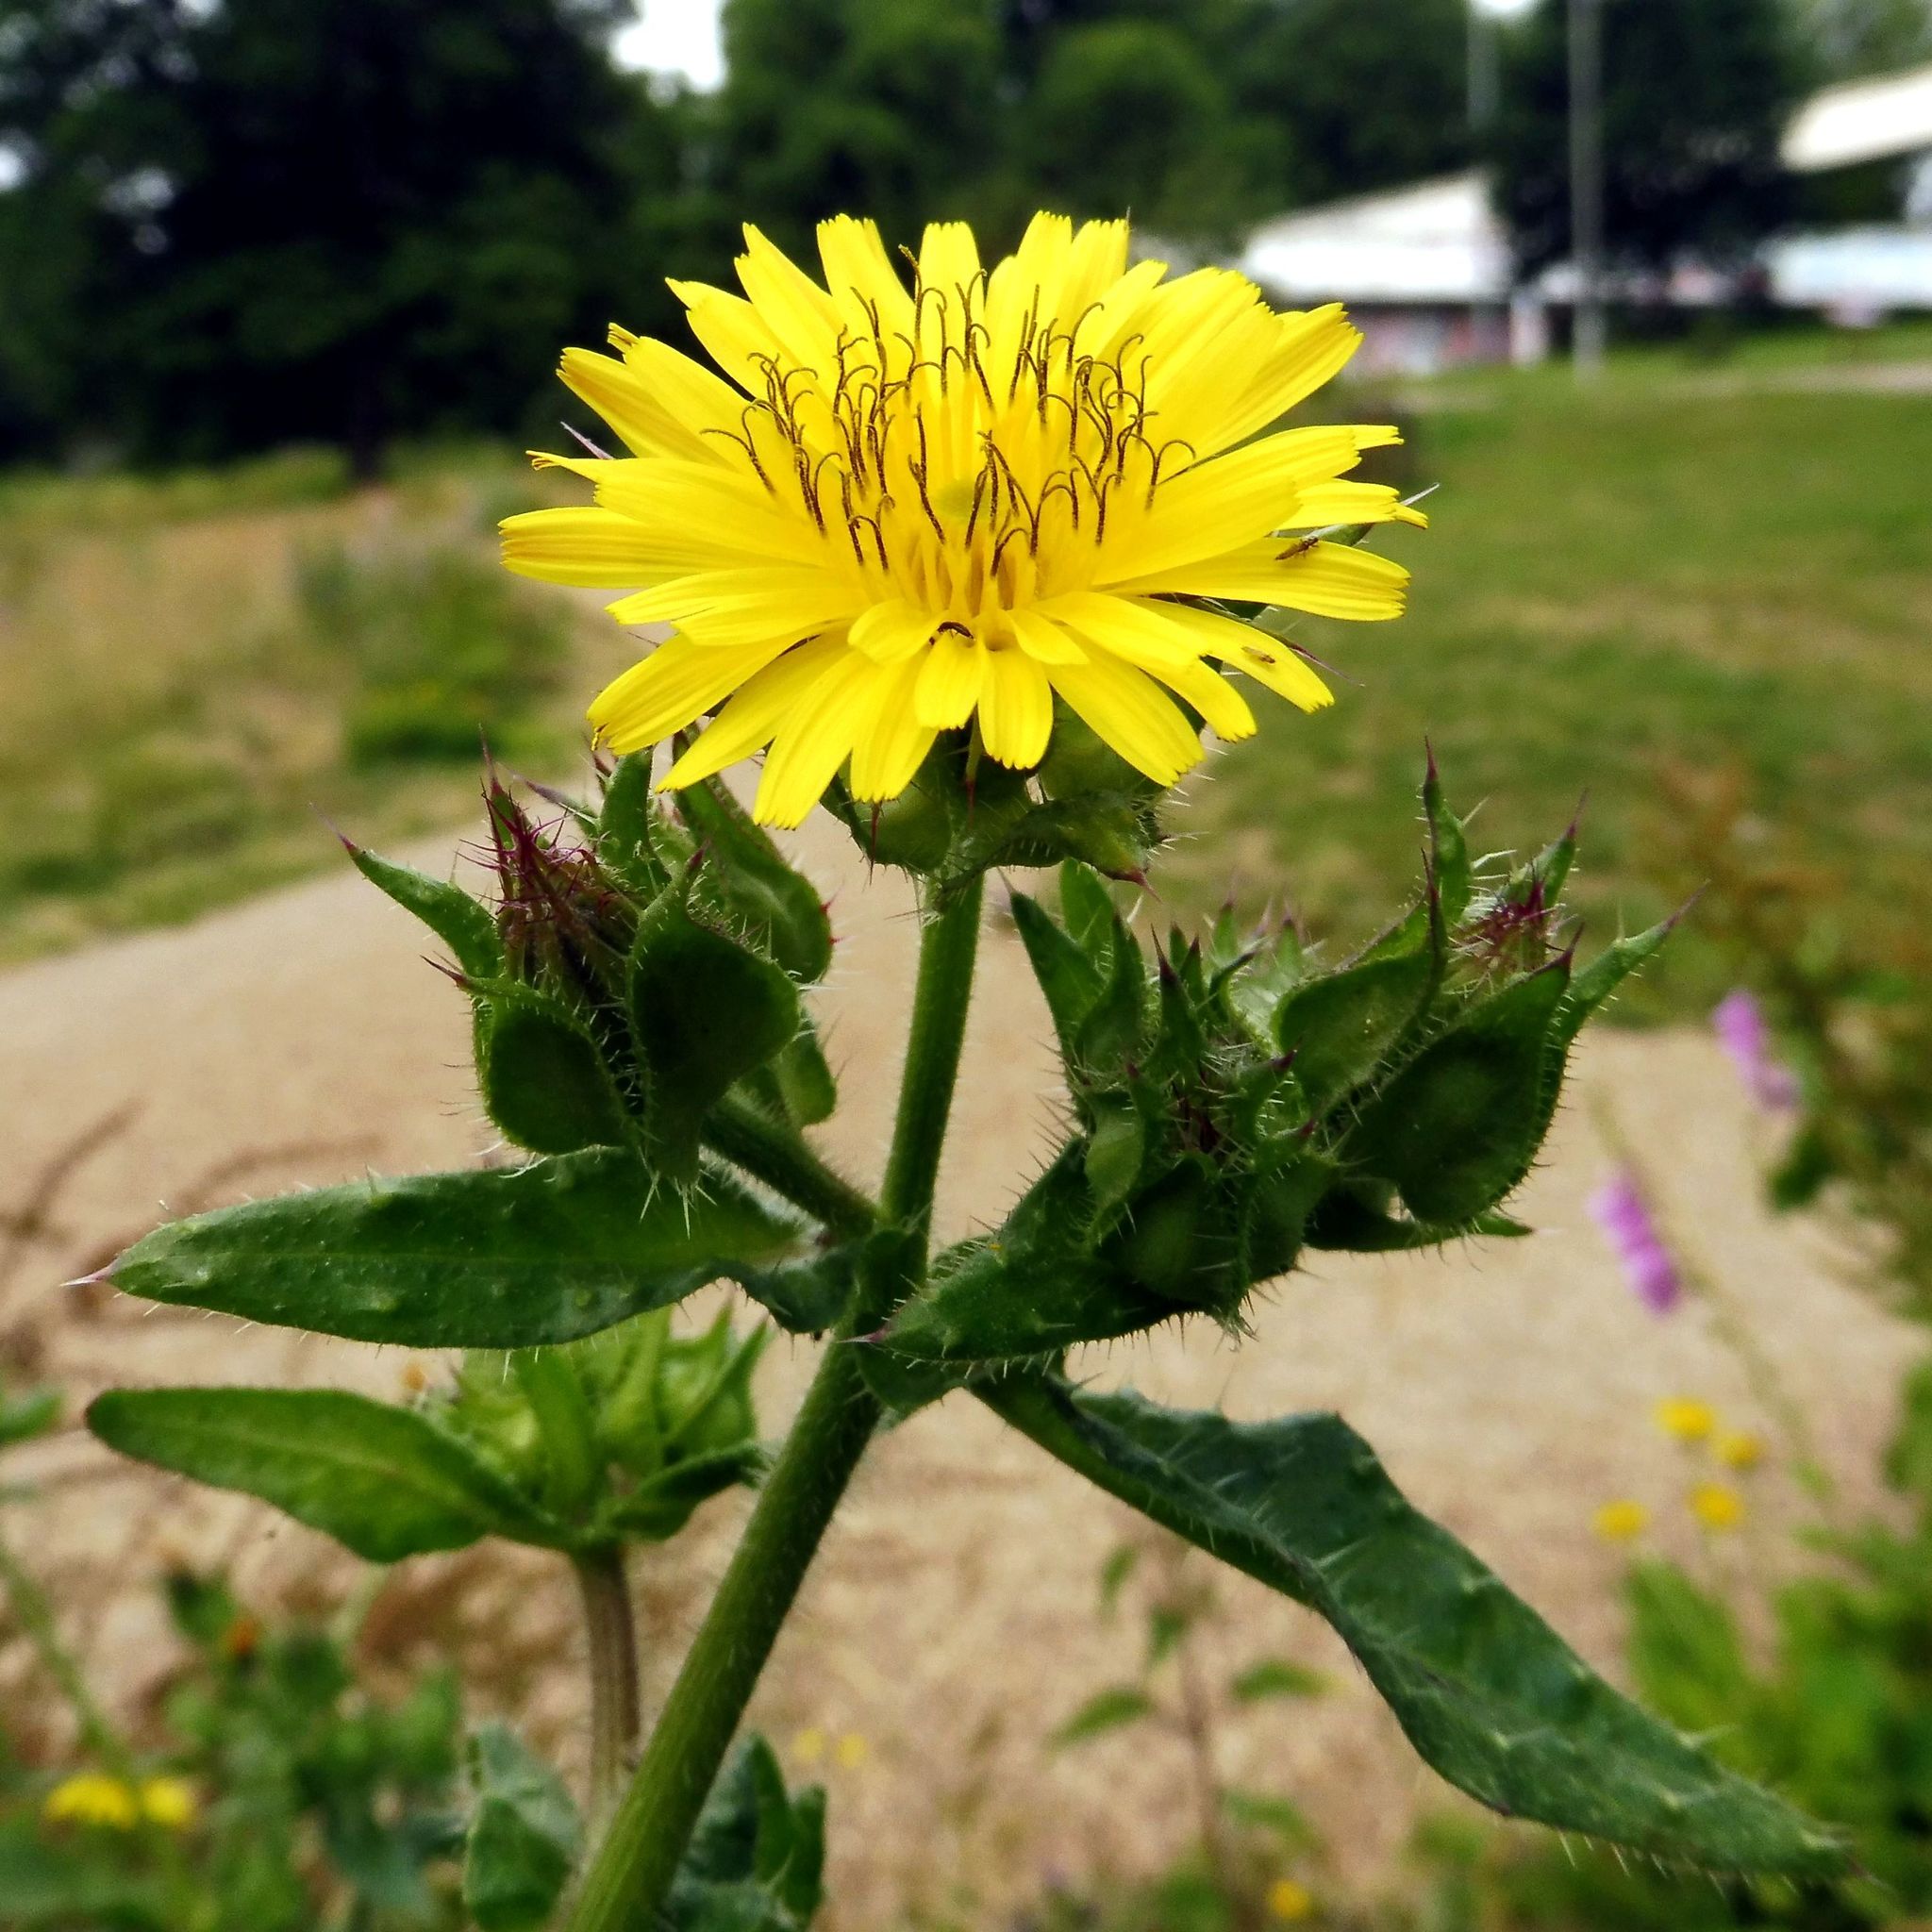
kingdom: Plantae
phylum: Tracheophyta
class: Magnoliopsida
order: Asterales
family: Asteraceae
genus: Helminthotheca
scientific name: Helminthotheca echioides
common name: Ox-tongue
